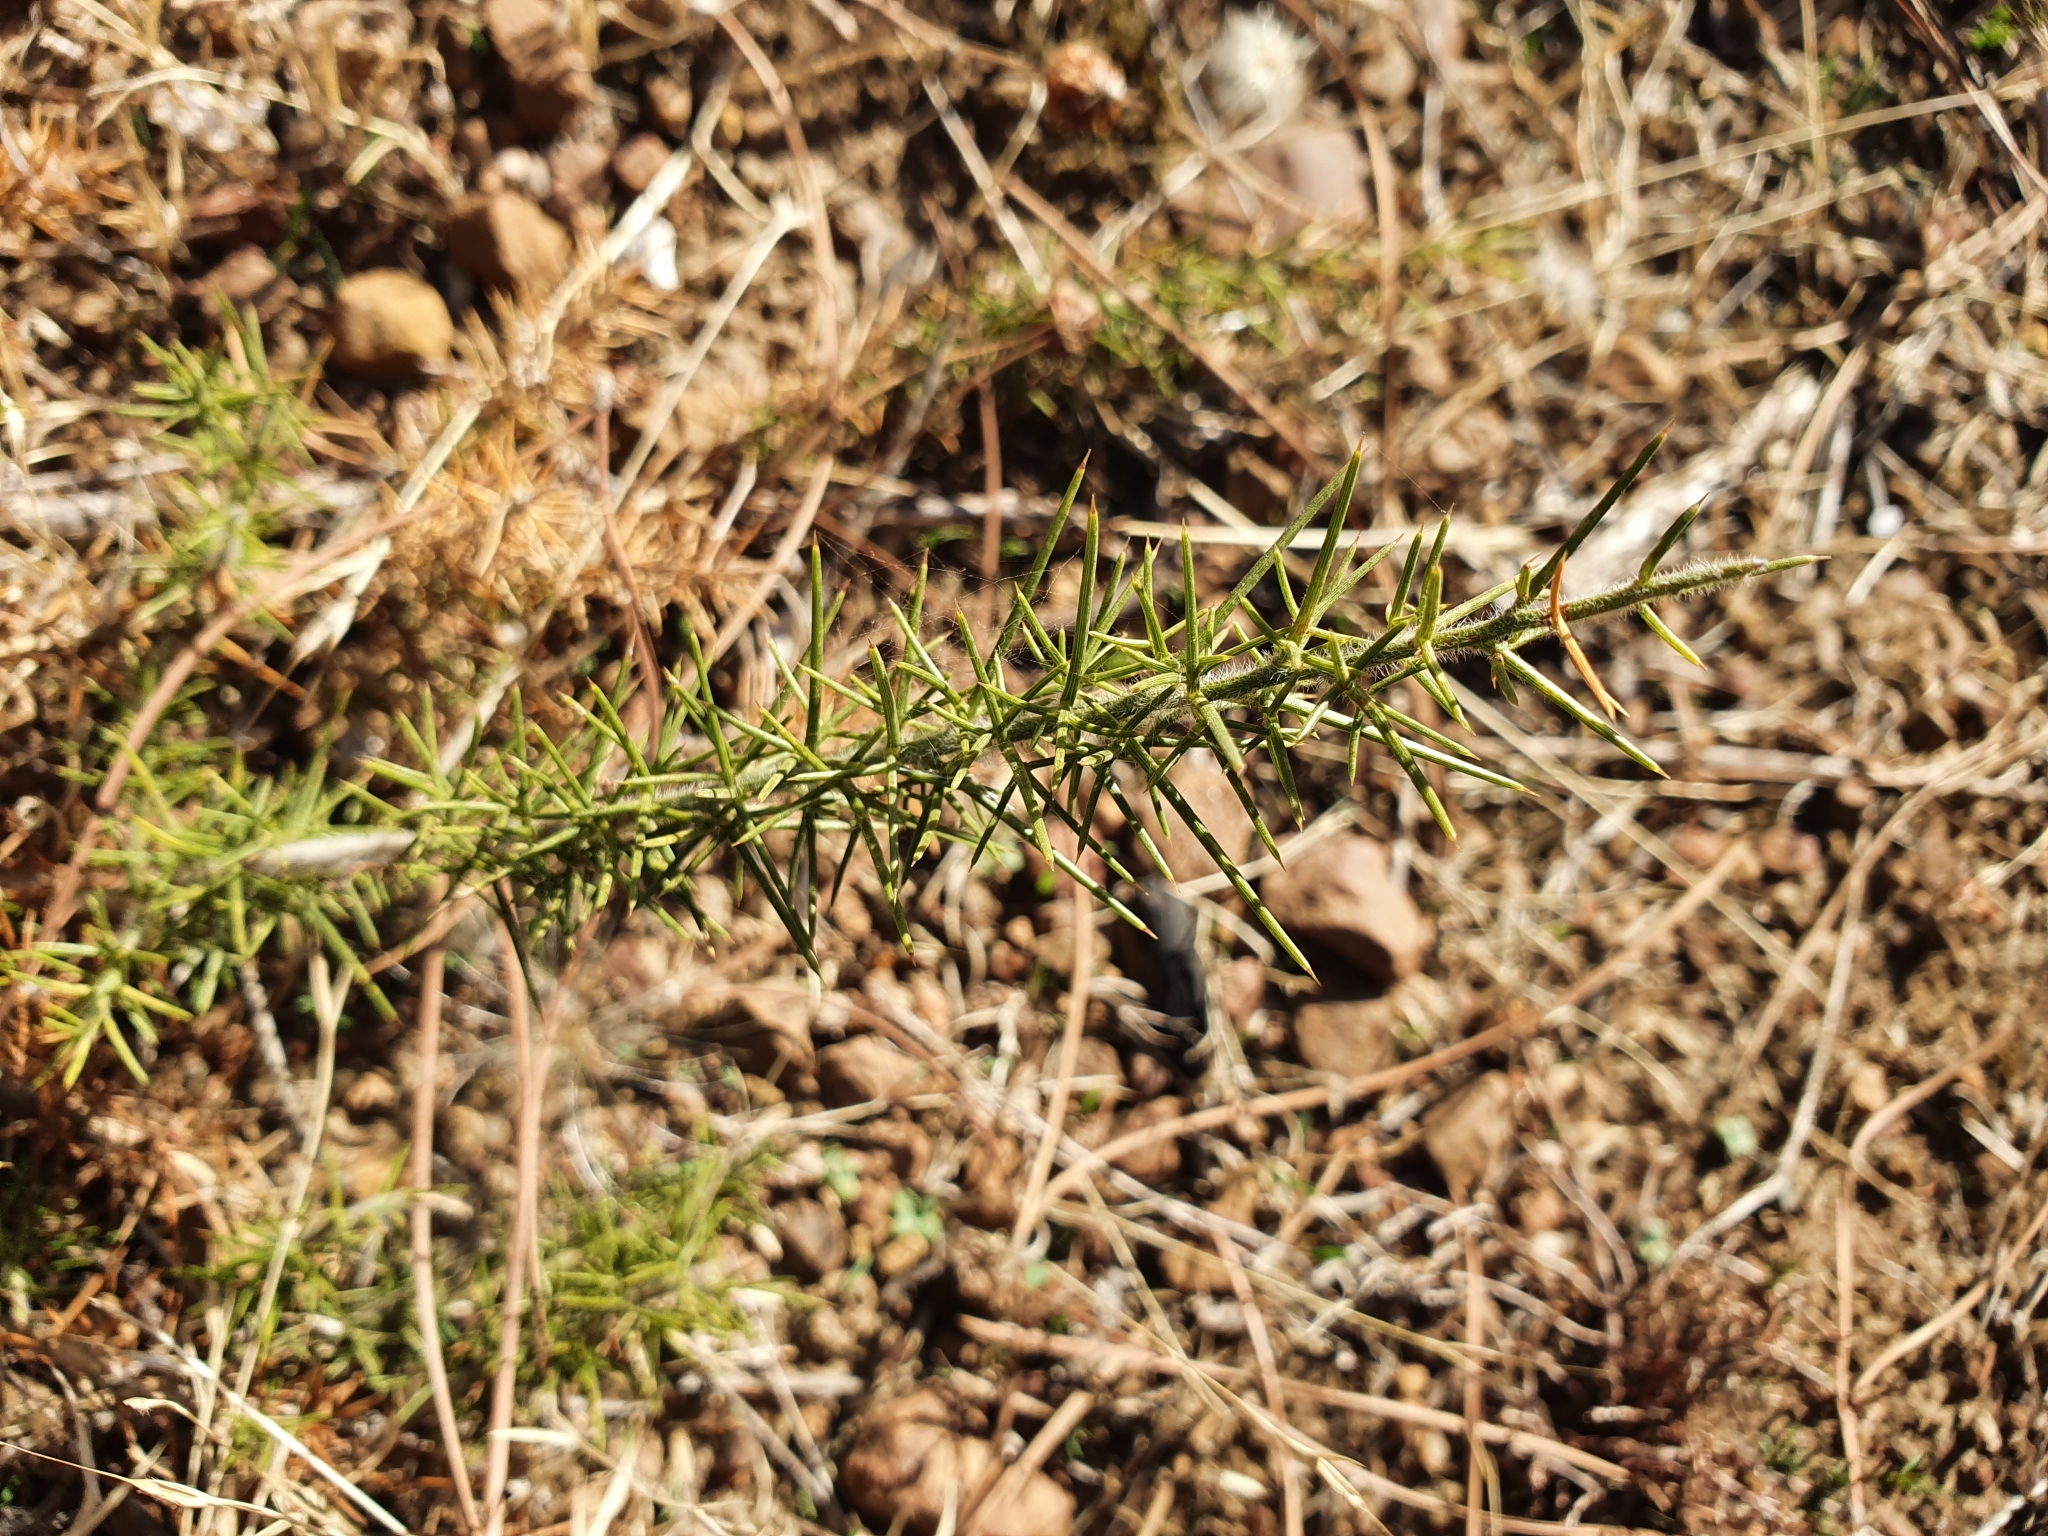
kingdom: Plantae
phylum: Tracheophyta
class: Magnoliopsida
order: Fabales
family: Fabaceae
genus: Genista
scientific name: Genista ulicina
